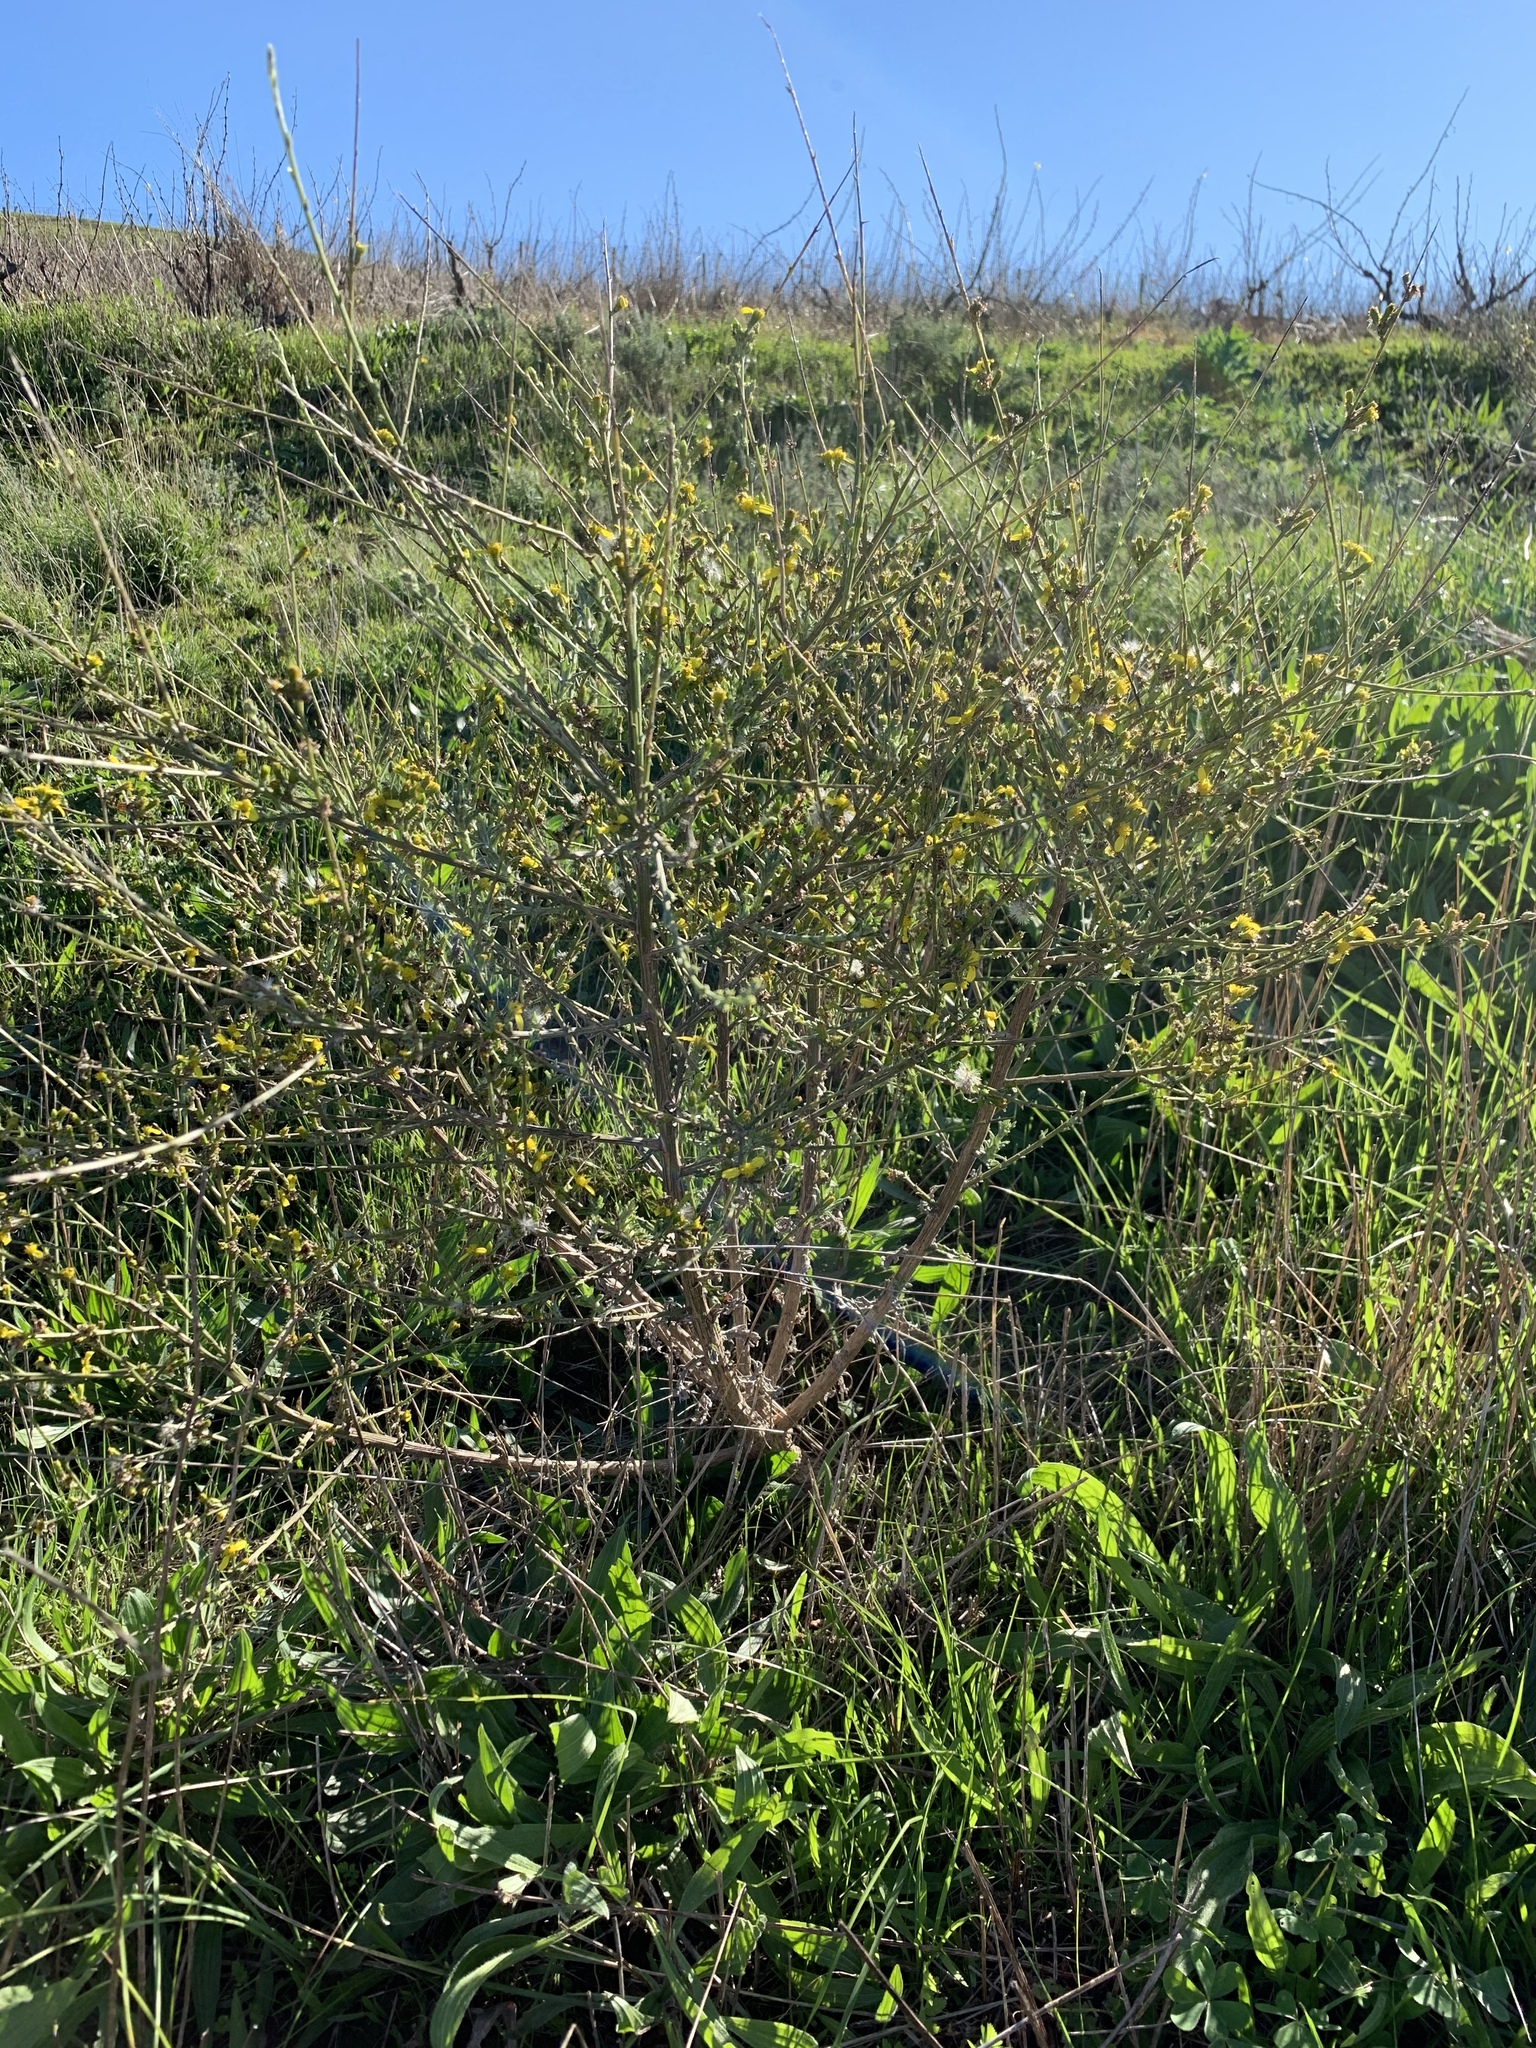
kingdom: Plantae
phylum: Tracheophyta
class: Magnoliopsida
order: Asterales
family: Asteraceae
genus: Senecio
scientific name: Senecio pubigerus
